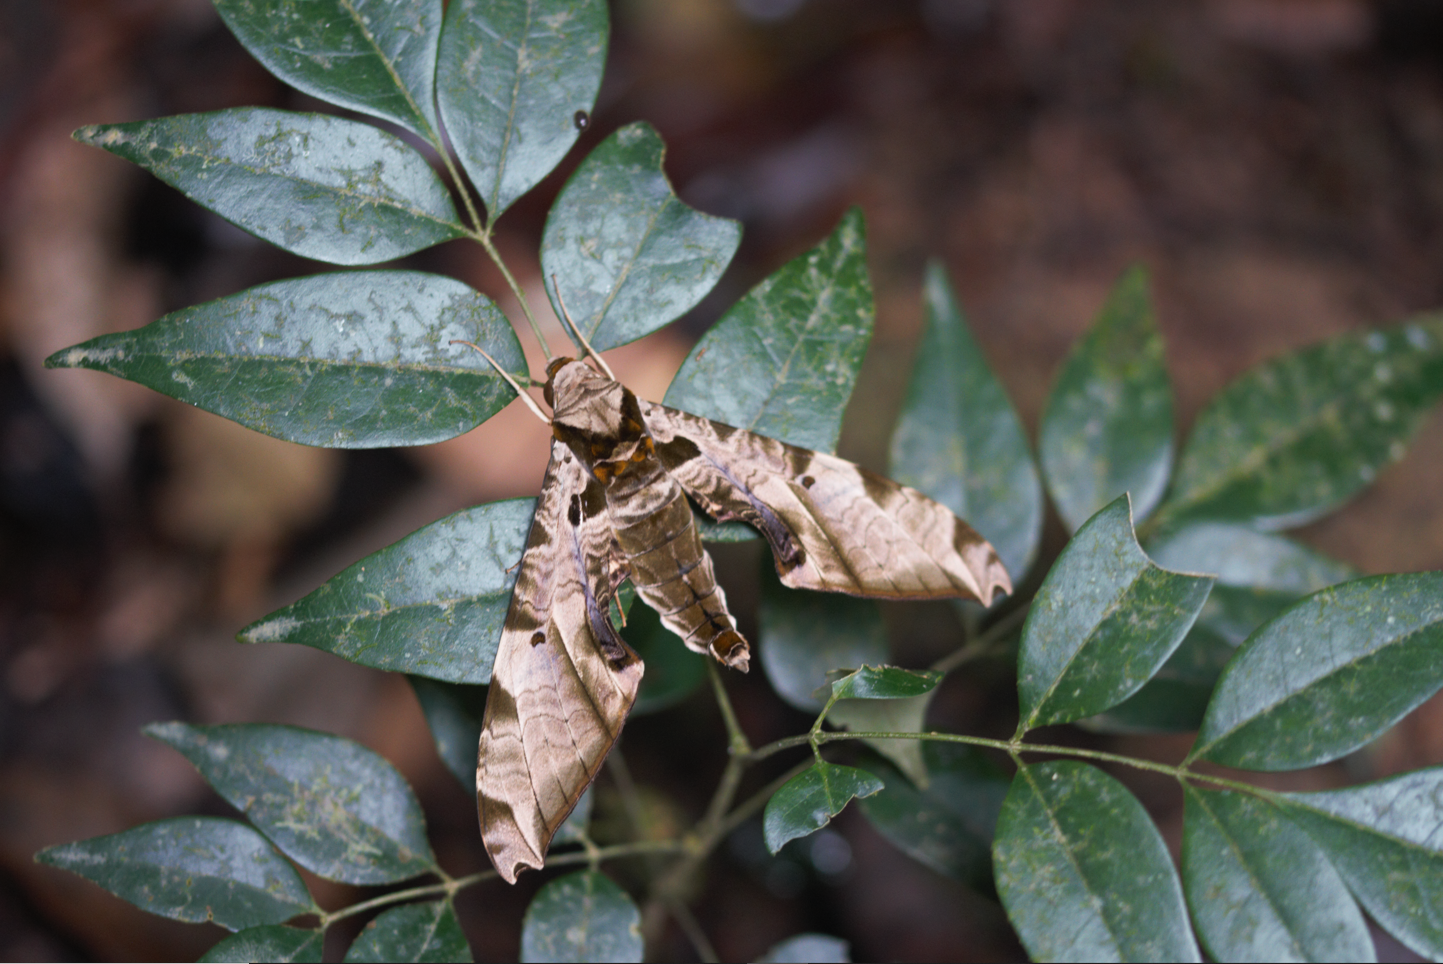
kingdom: Animalia
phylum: Arthropoda
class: Insecta
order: Lepidoptera
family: Sphingidae
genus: Protambulyx
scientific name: Protambulyx eurycles
